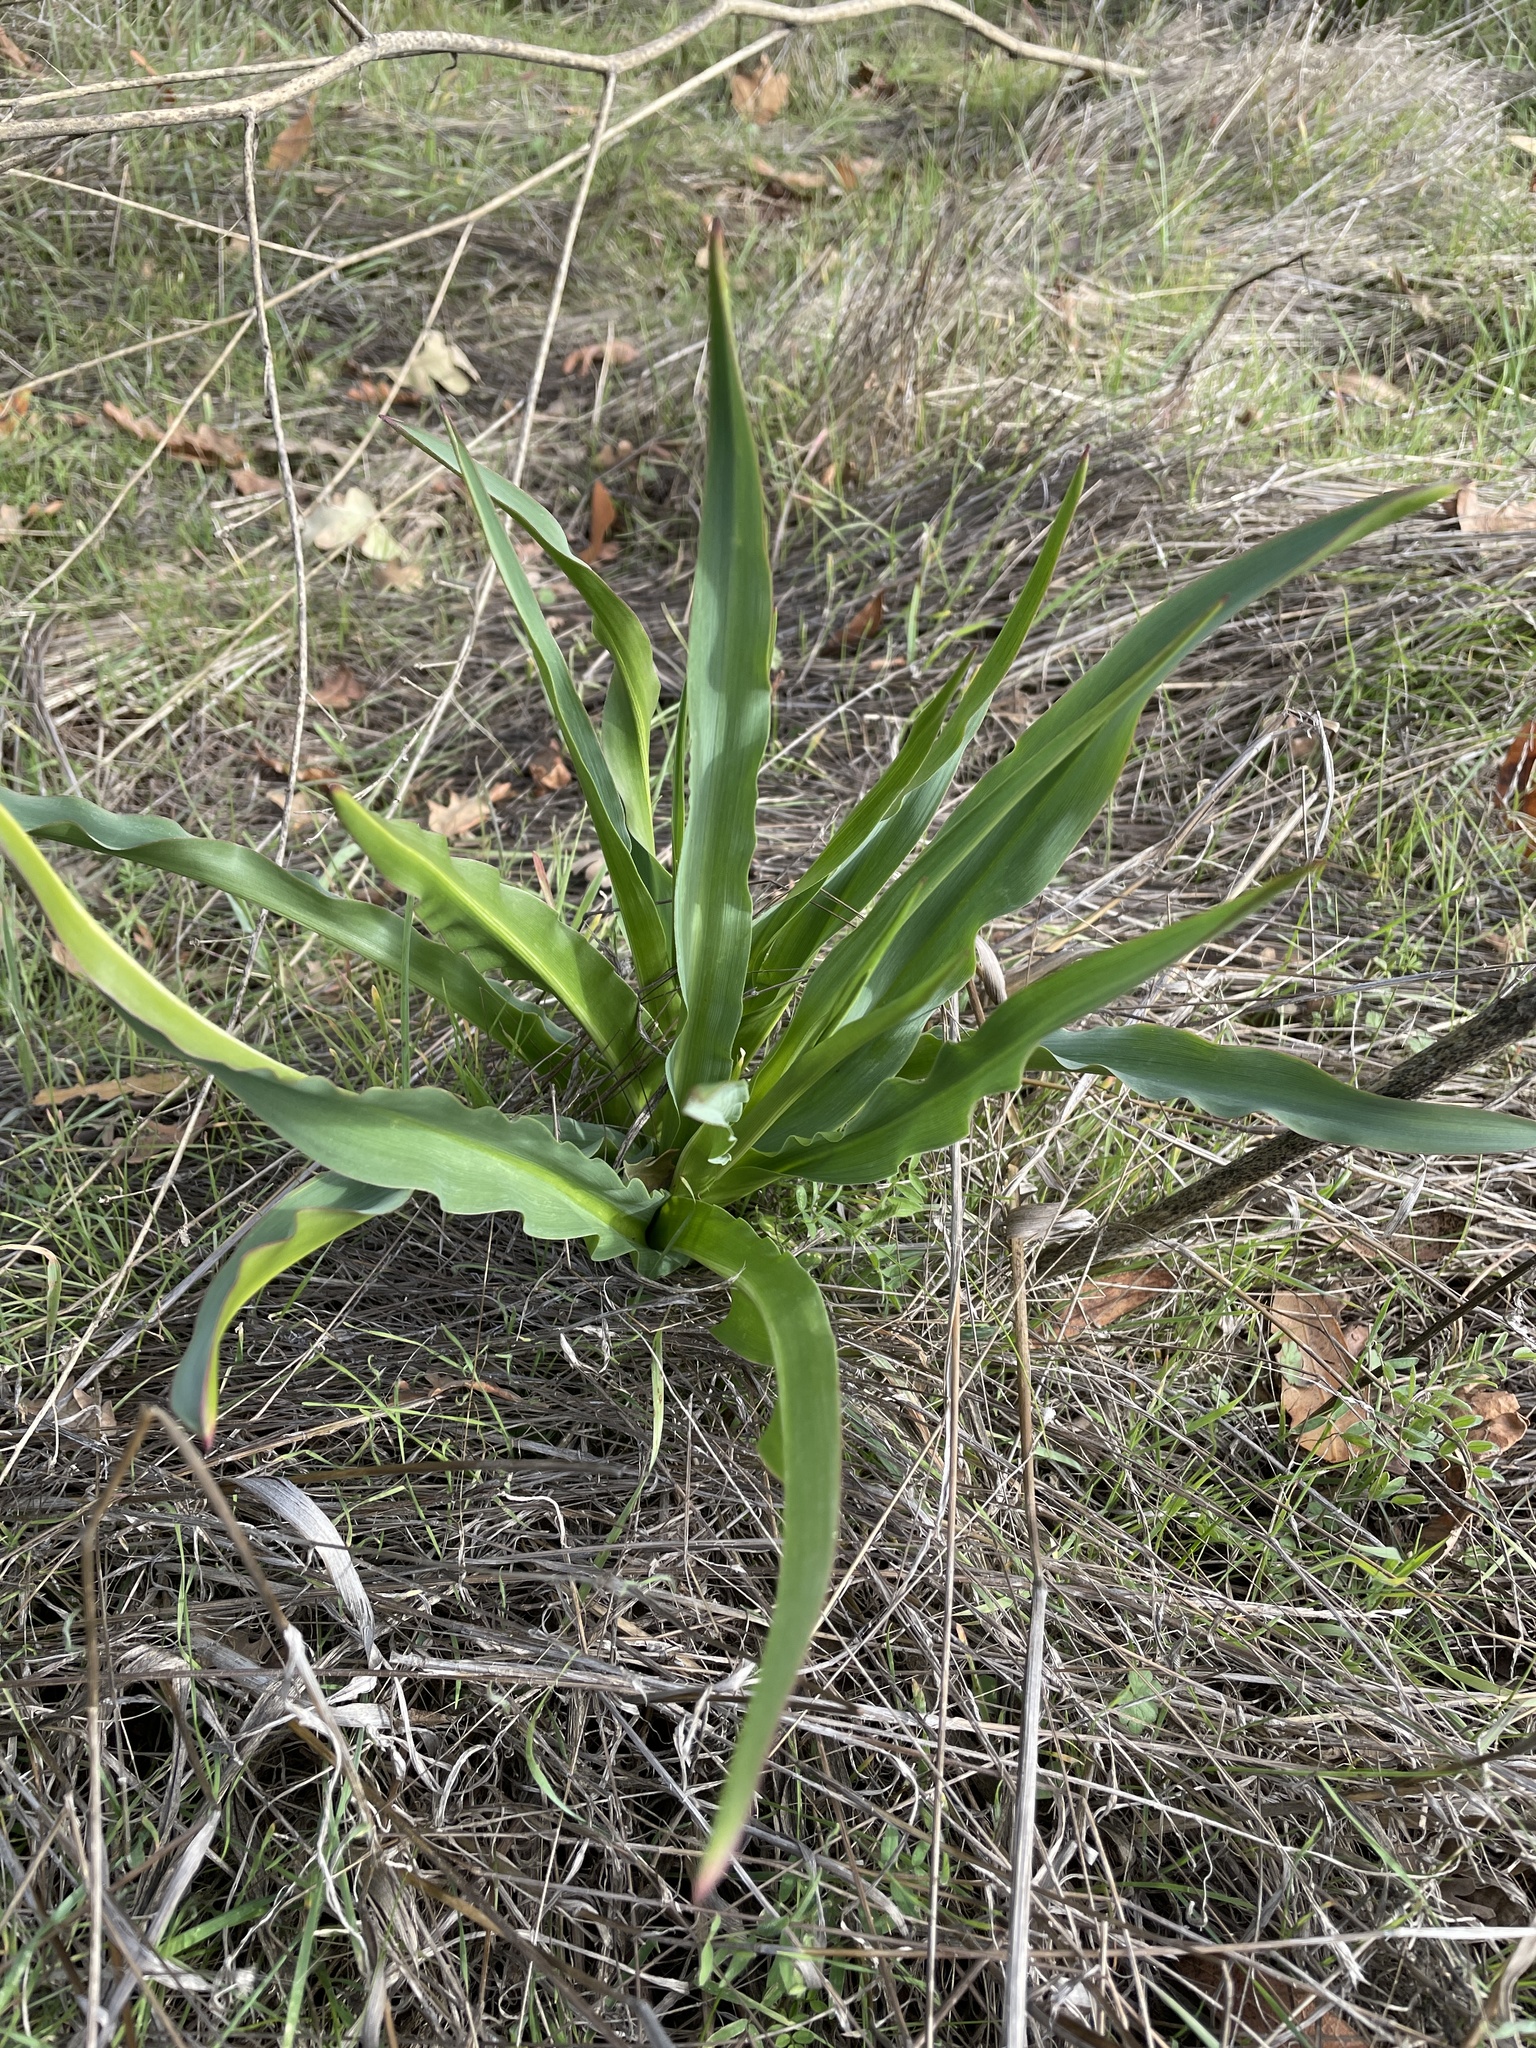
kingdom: Plantae
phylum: Tracheophyta
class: Liliopsida
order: Asparagales
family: Asparagaceae
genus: Chlorogalum
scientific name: Chlorogalum pomeridianum
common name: Amole
